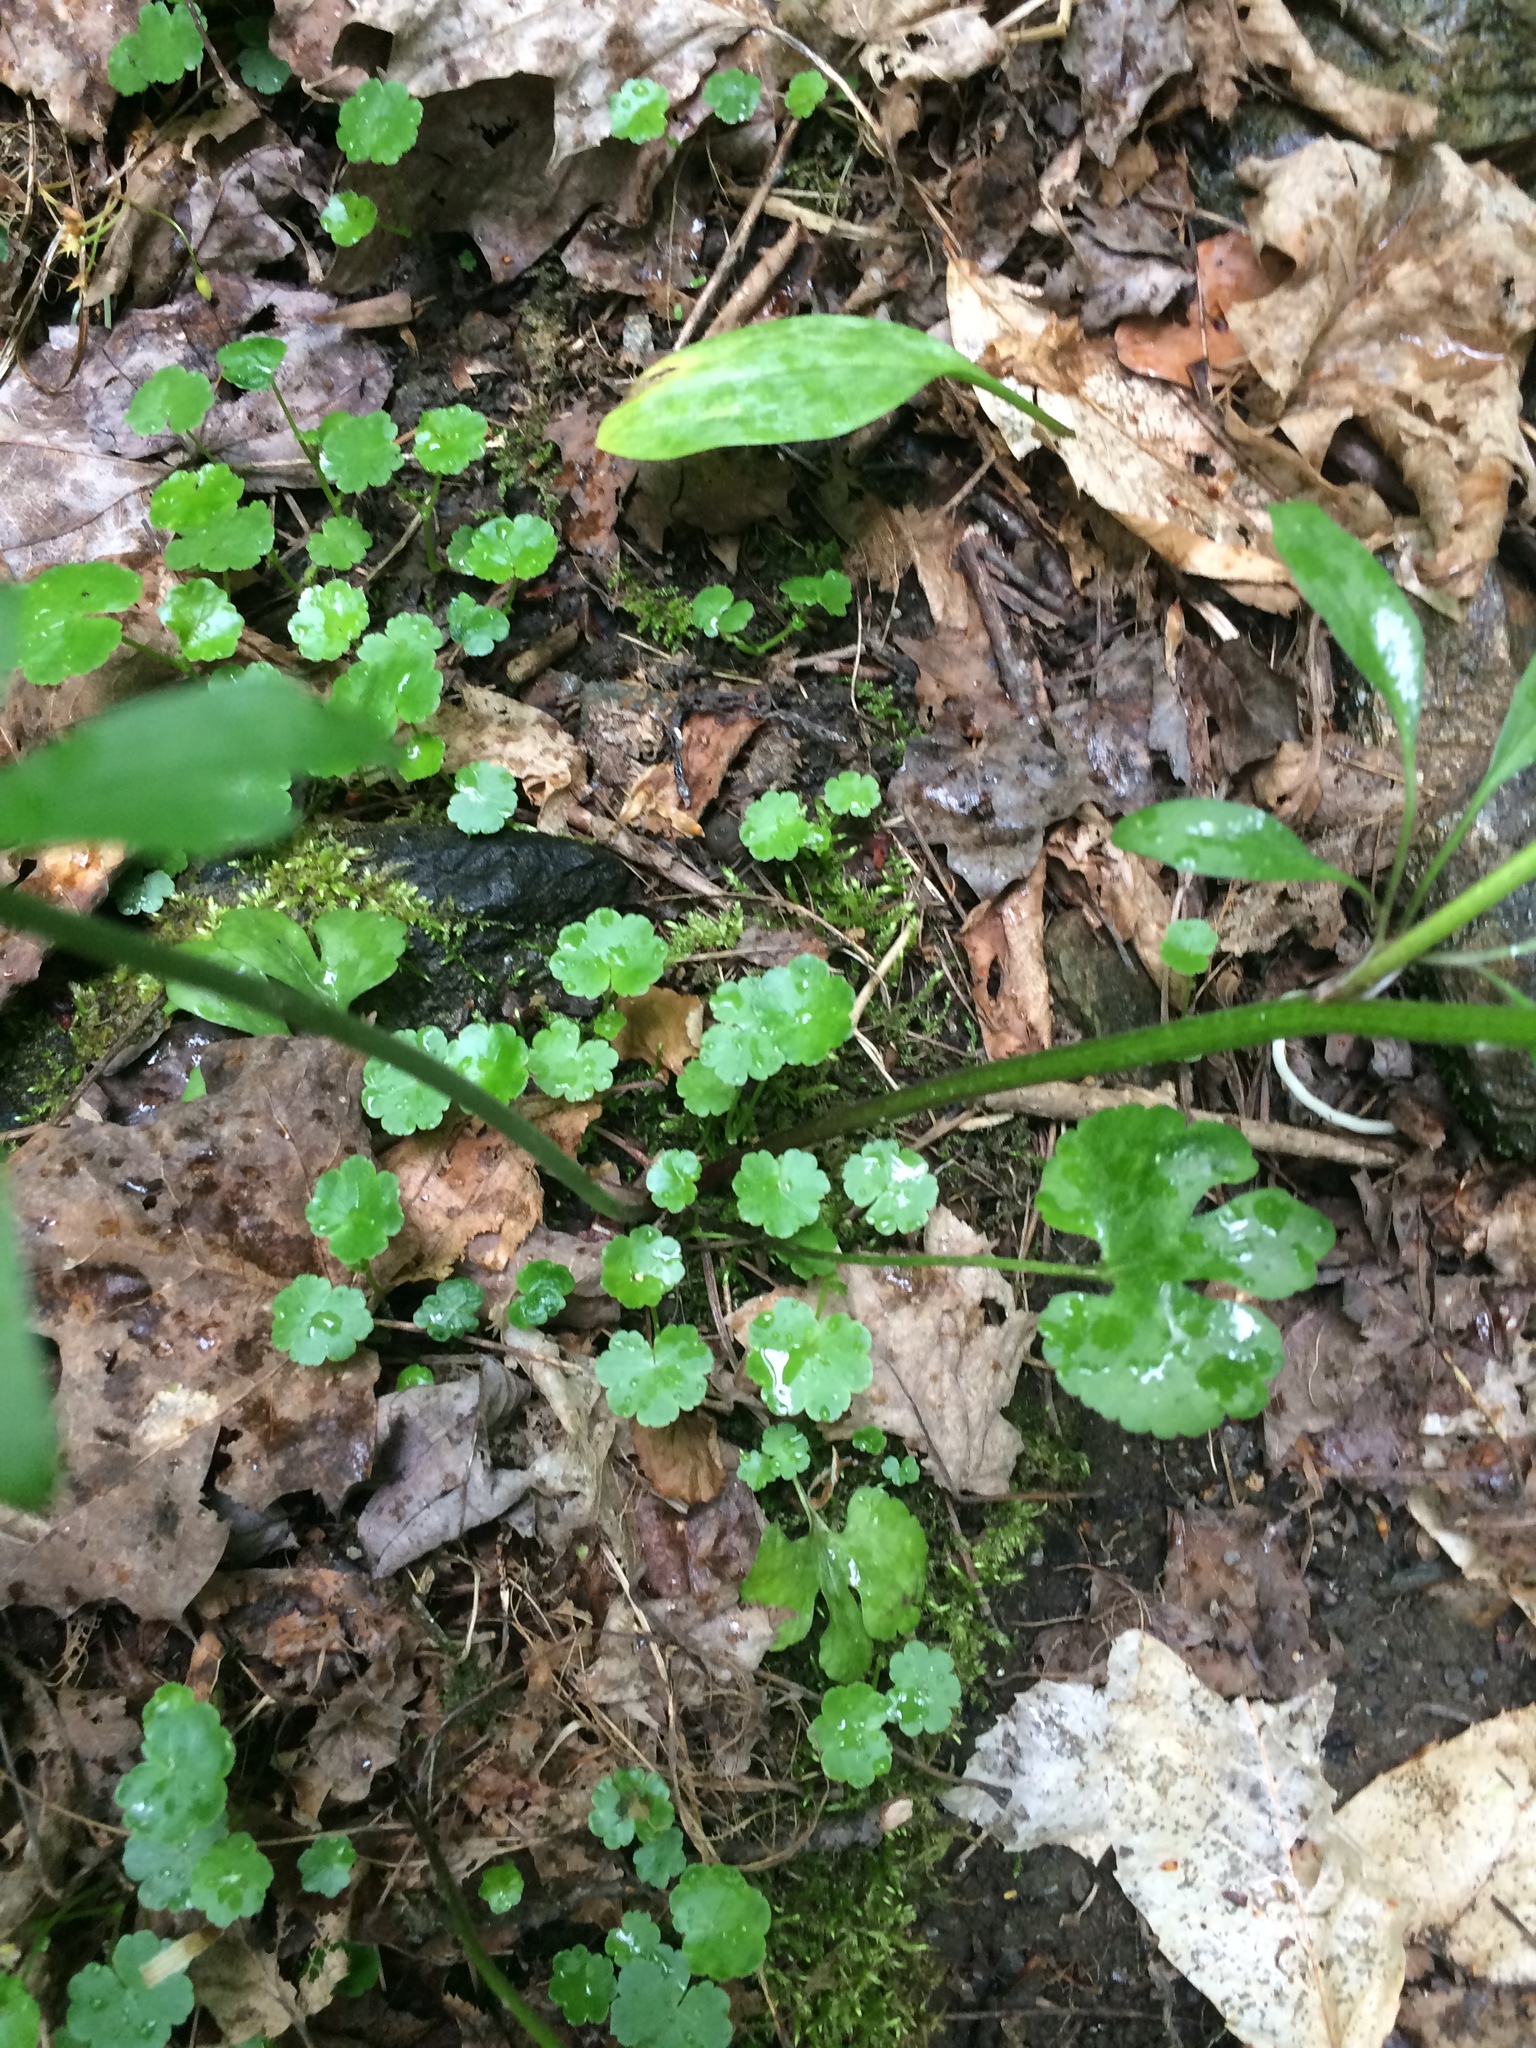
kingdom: Plantae
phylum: Tracheophyta
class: Magnoliopsida
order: Apiales
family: Araliaceae
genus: Hydrocotyle
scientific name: Hydrocotyle americana
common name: American water-pennywort
